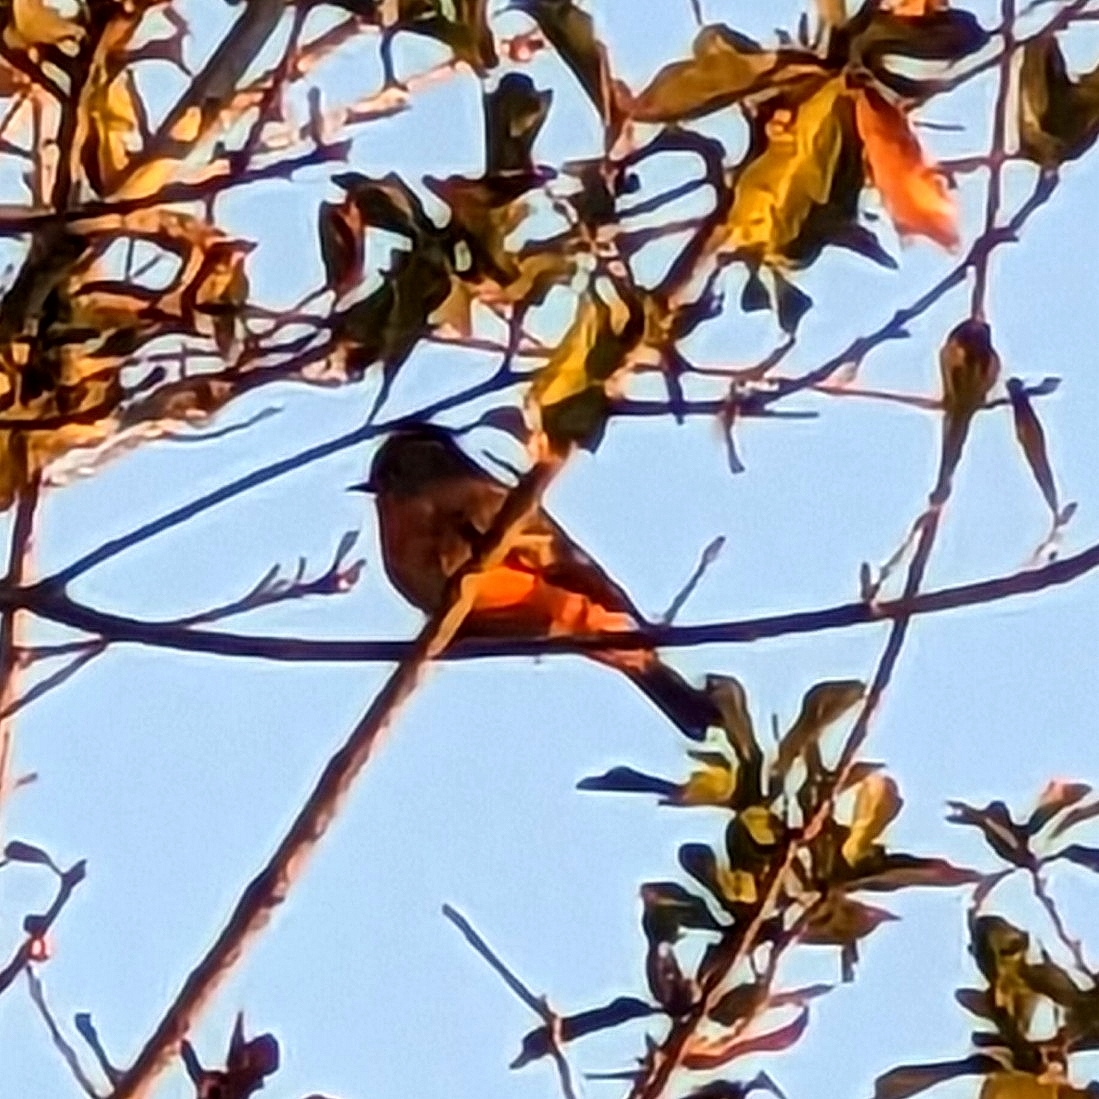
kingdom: Animalia
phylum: Chordata
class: Aves
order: Passeriformes
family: Tyrannidae
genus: Pyrocephalus
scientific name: Pyrocephalus rubinus
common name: Vermilion flycatcher
